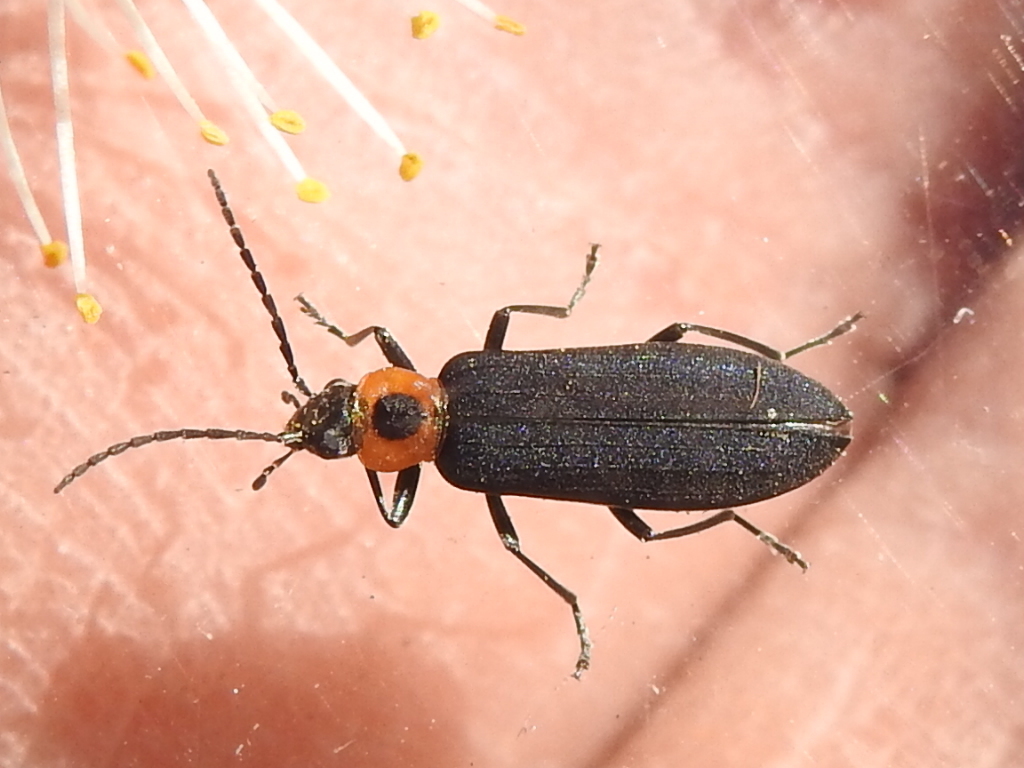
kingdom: Animalia
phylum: Arthropoda
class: Insecta
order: Coleoptera
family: Oedemeridae
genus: Ischnomera
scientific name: Ischnomera
